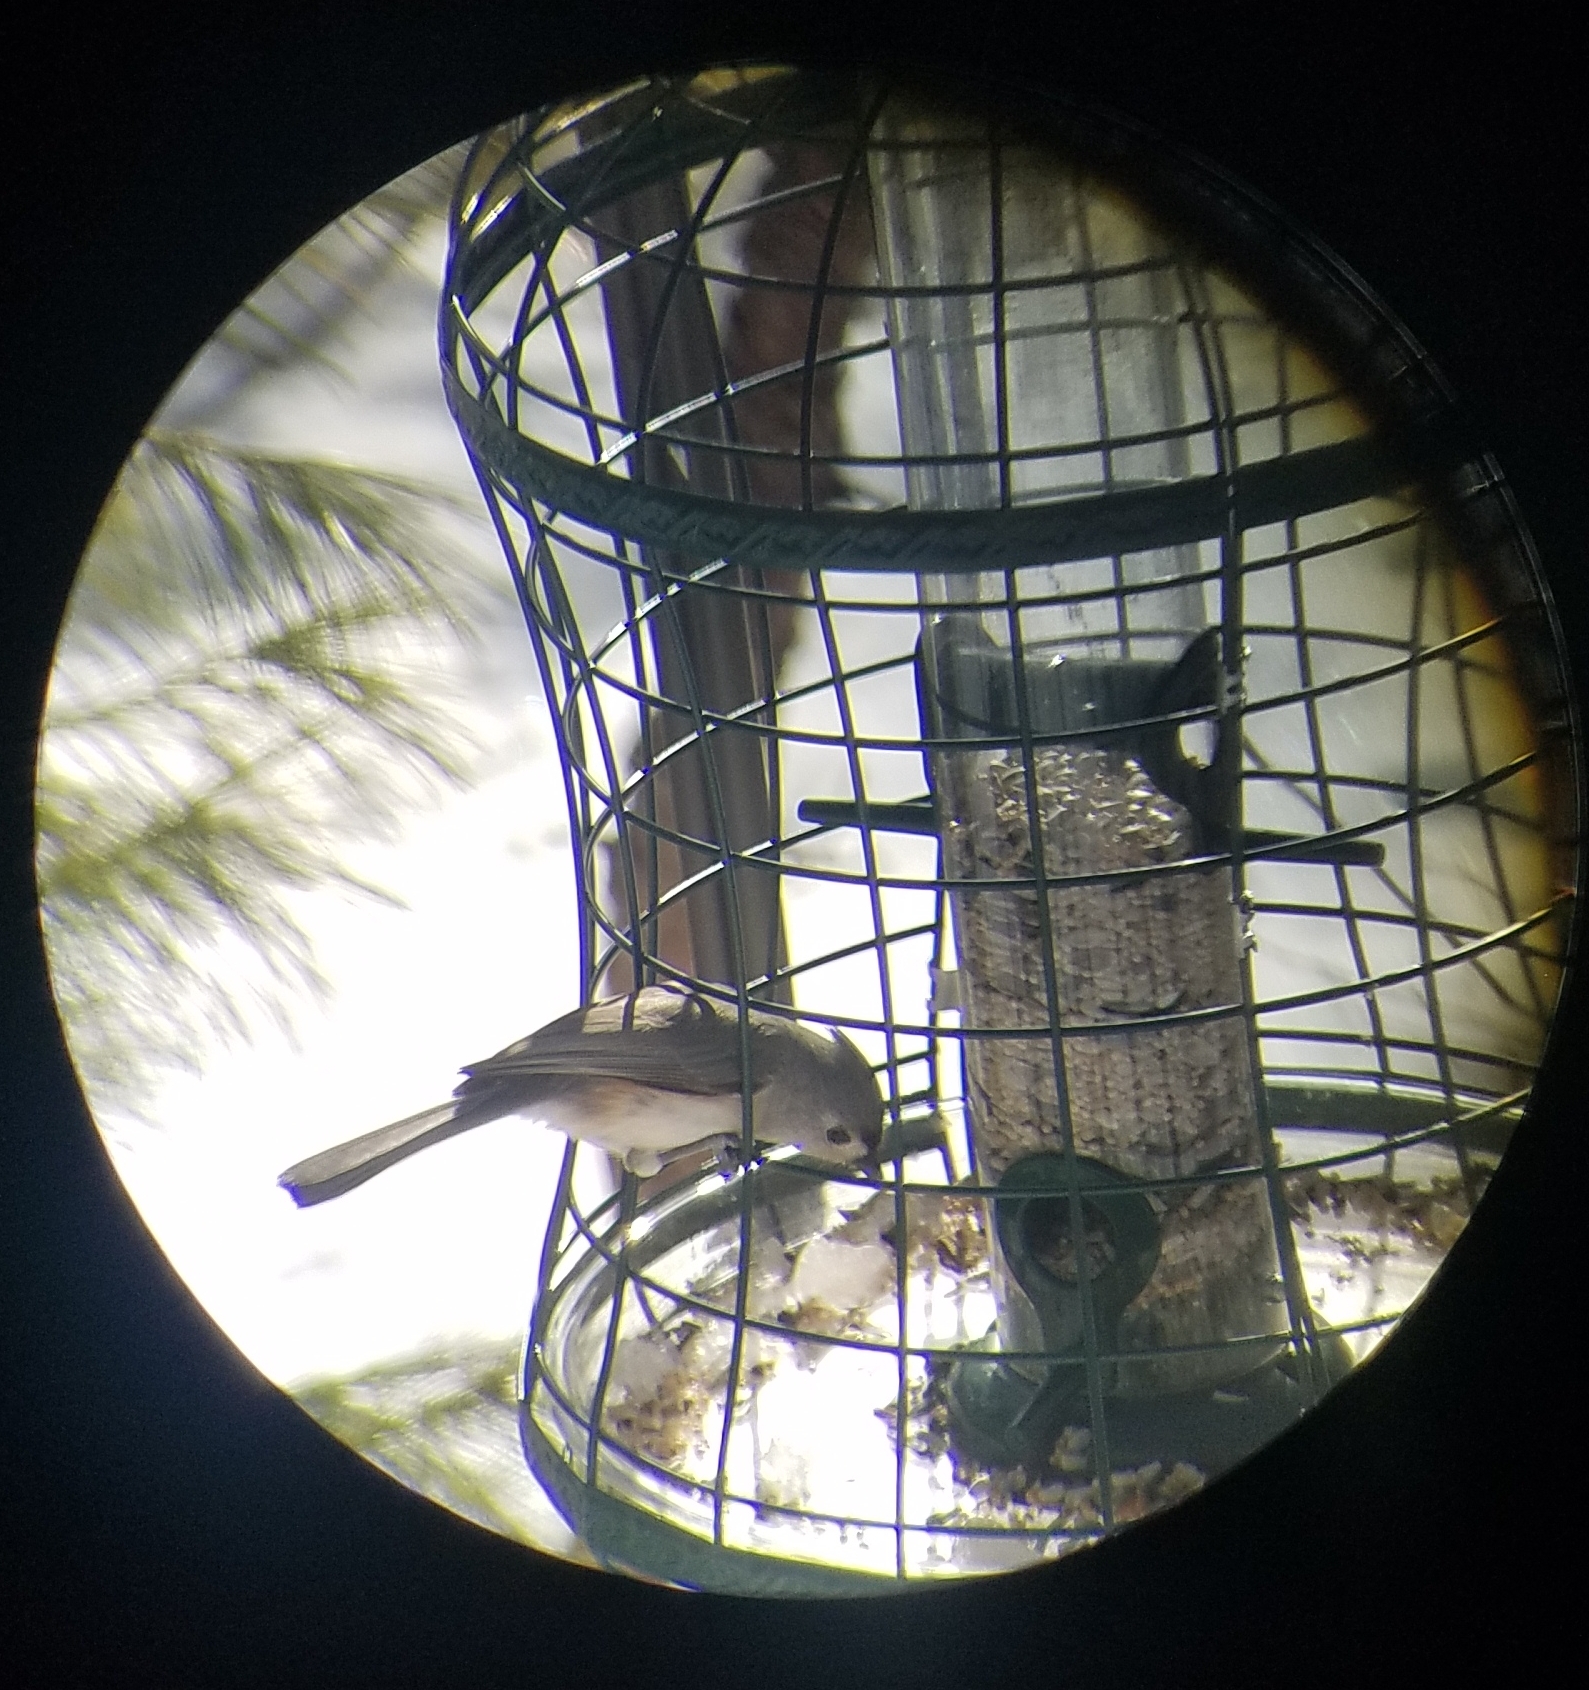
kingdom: Animalia
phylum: Chordata
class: Aves
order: Passeriformes
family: Paridae
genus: Baeolophus
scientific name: Baeolophus bicolor
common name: Tufted titmouse
